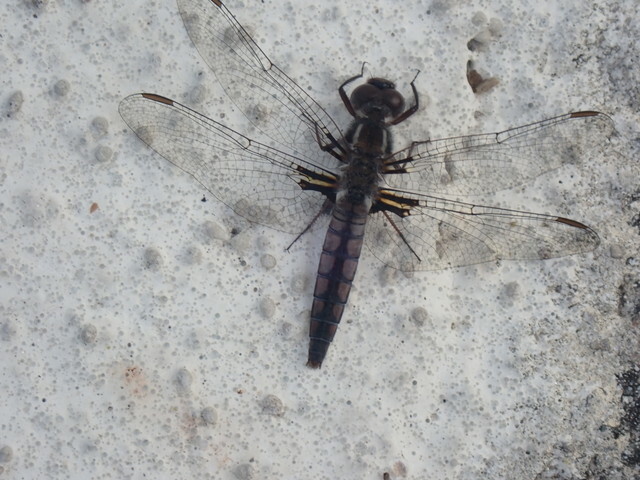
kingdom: Animalia
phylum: Arthropoda
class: Insecta
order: Odonata
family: Libellulidae
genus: Ladona
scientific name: Ladona deplanata
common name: Blue corporal
